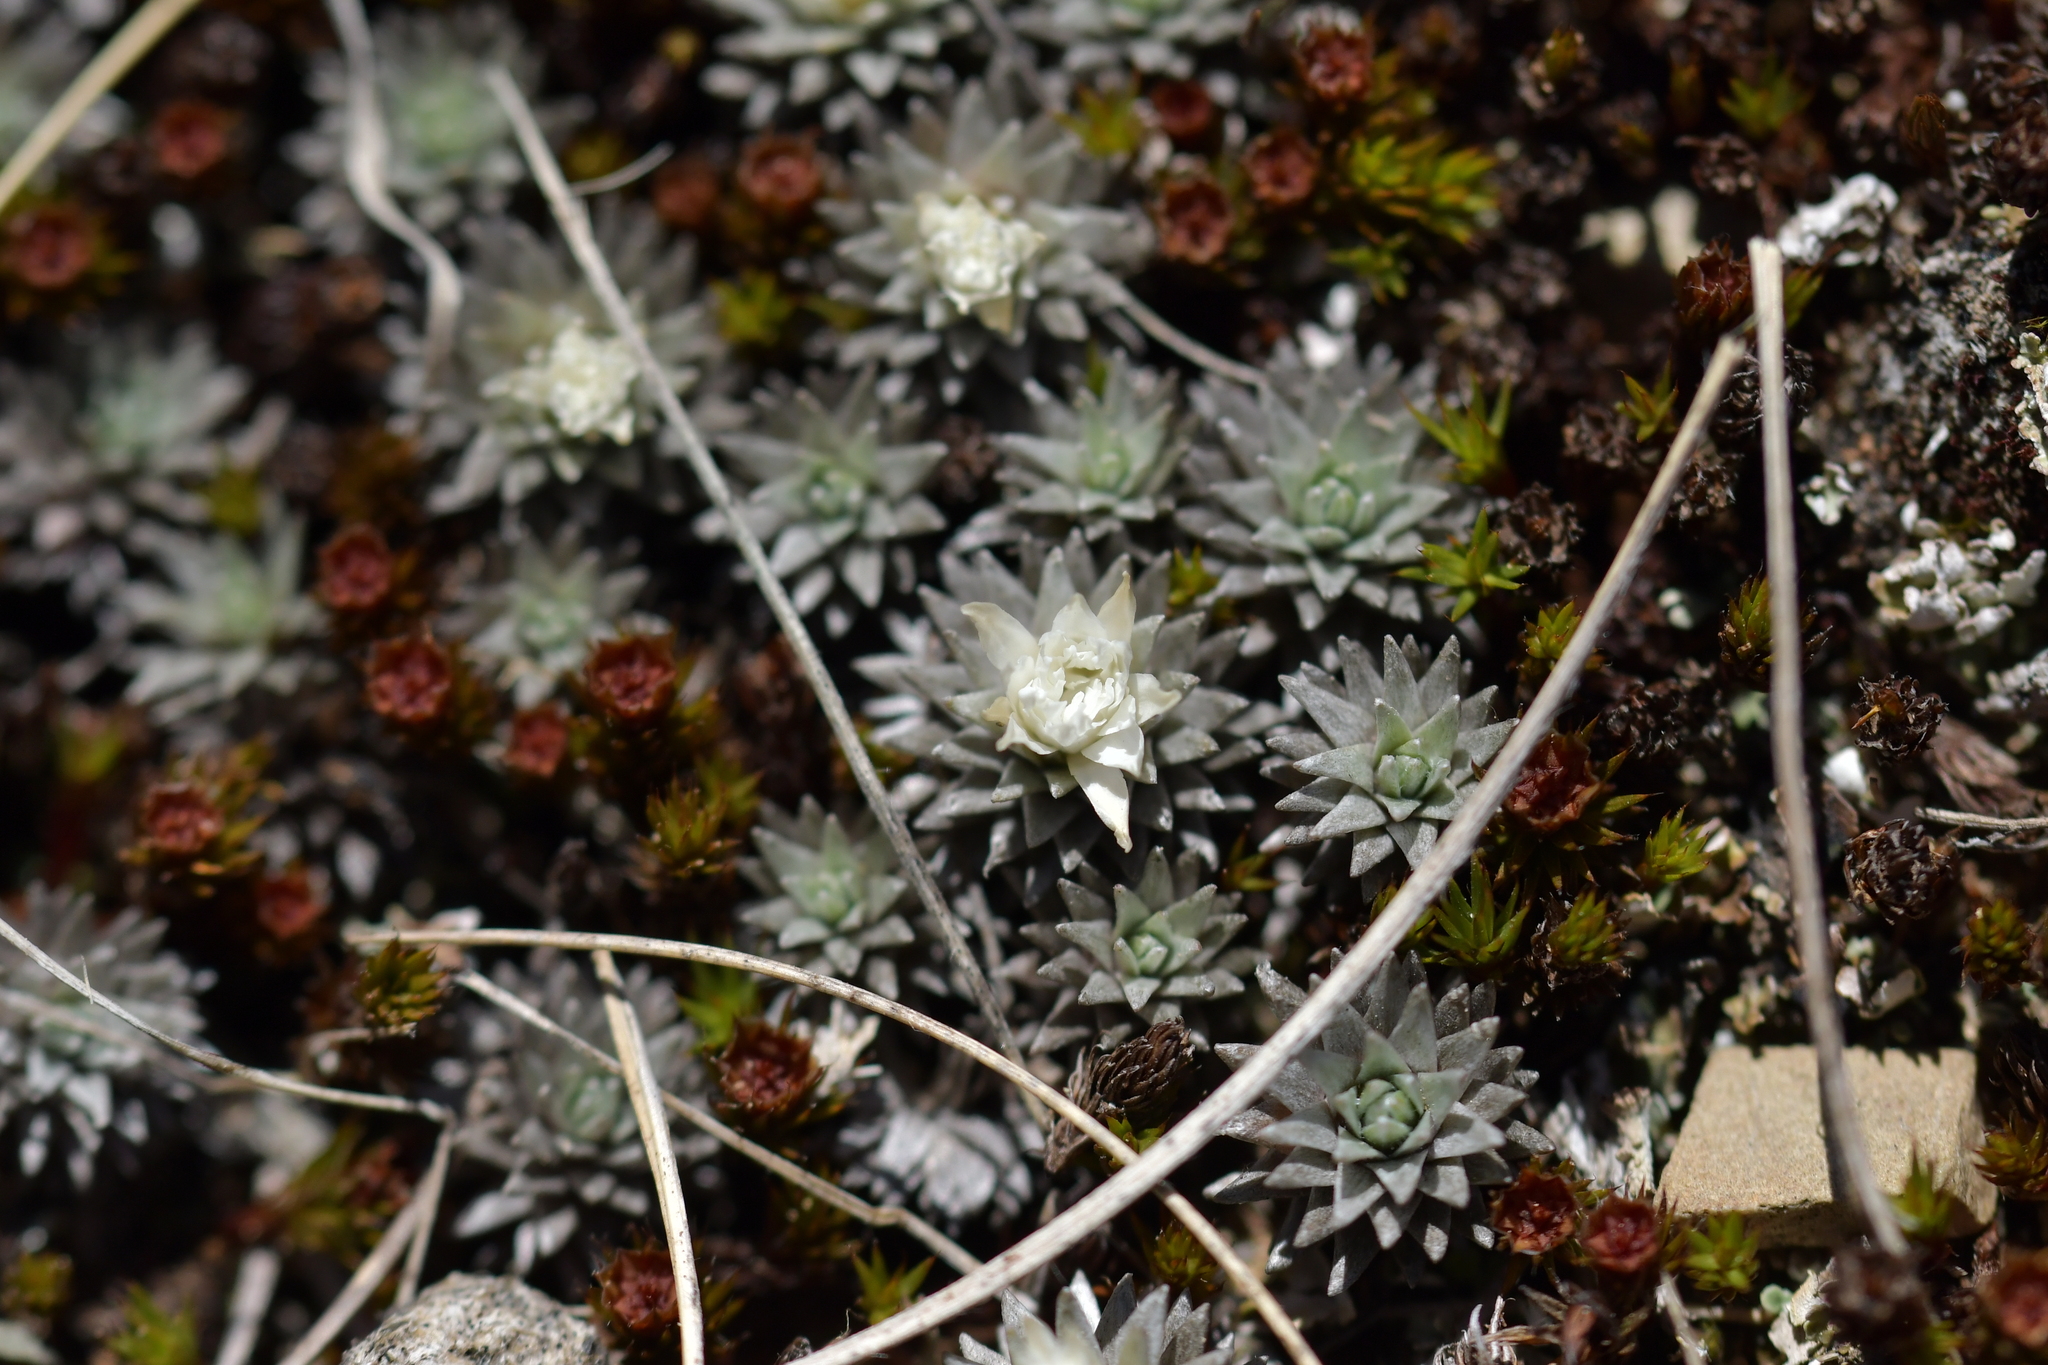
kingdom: Plantae
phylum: Tracheophyta
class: Magnoliopsida
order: Asterales
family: Asteraceae
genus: Raoulia
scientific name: Raoulia grandiflora
